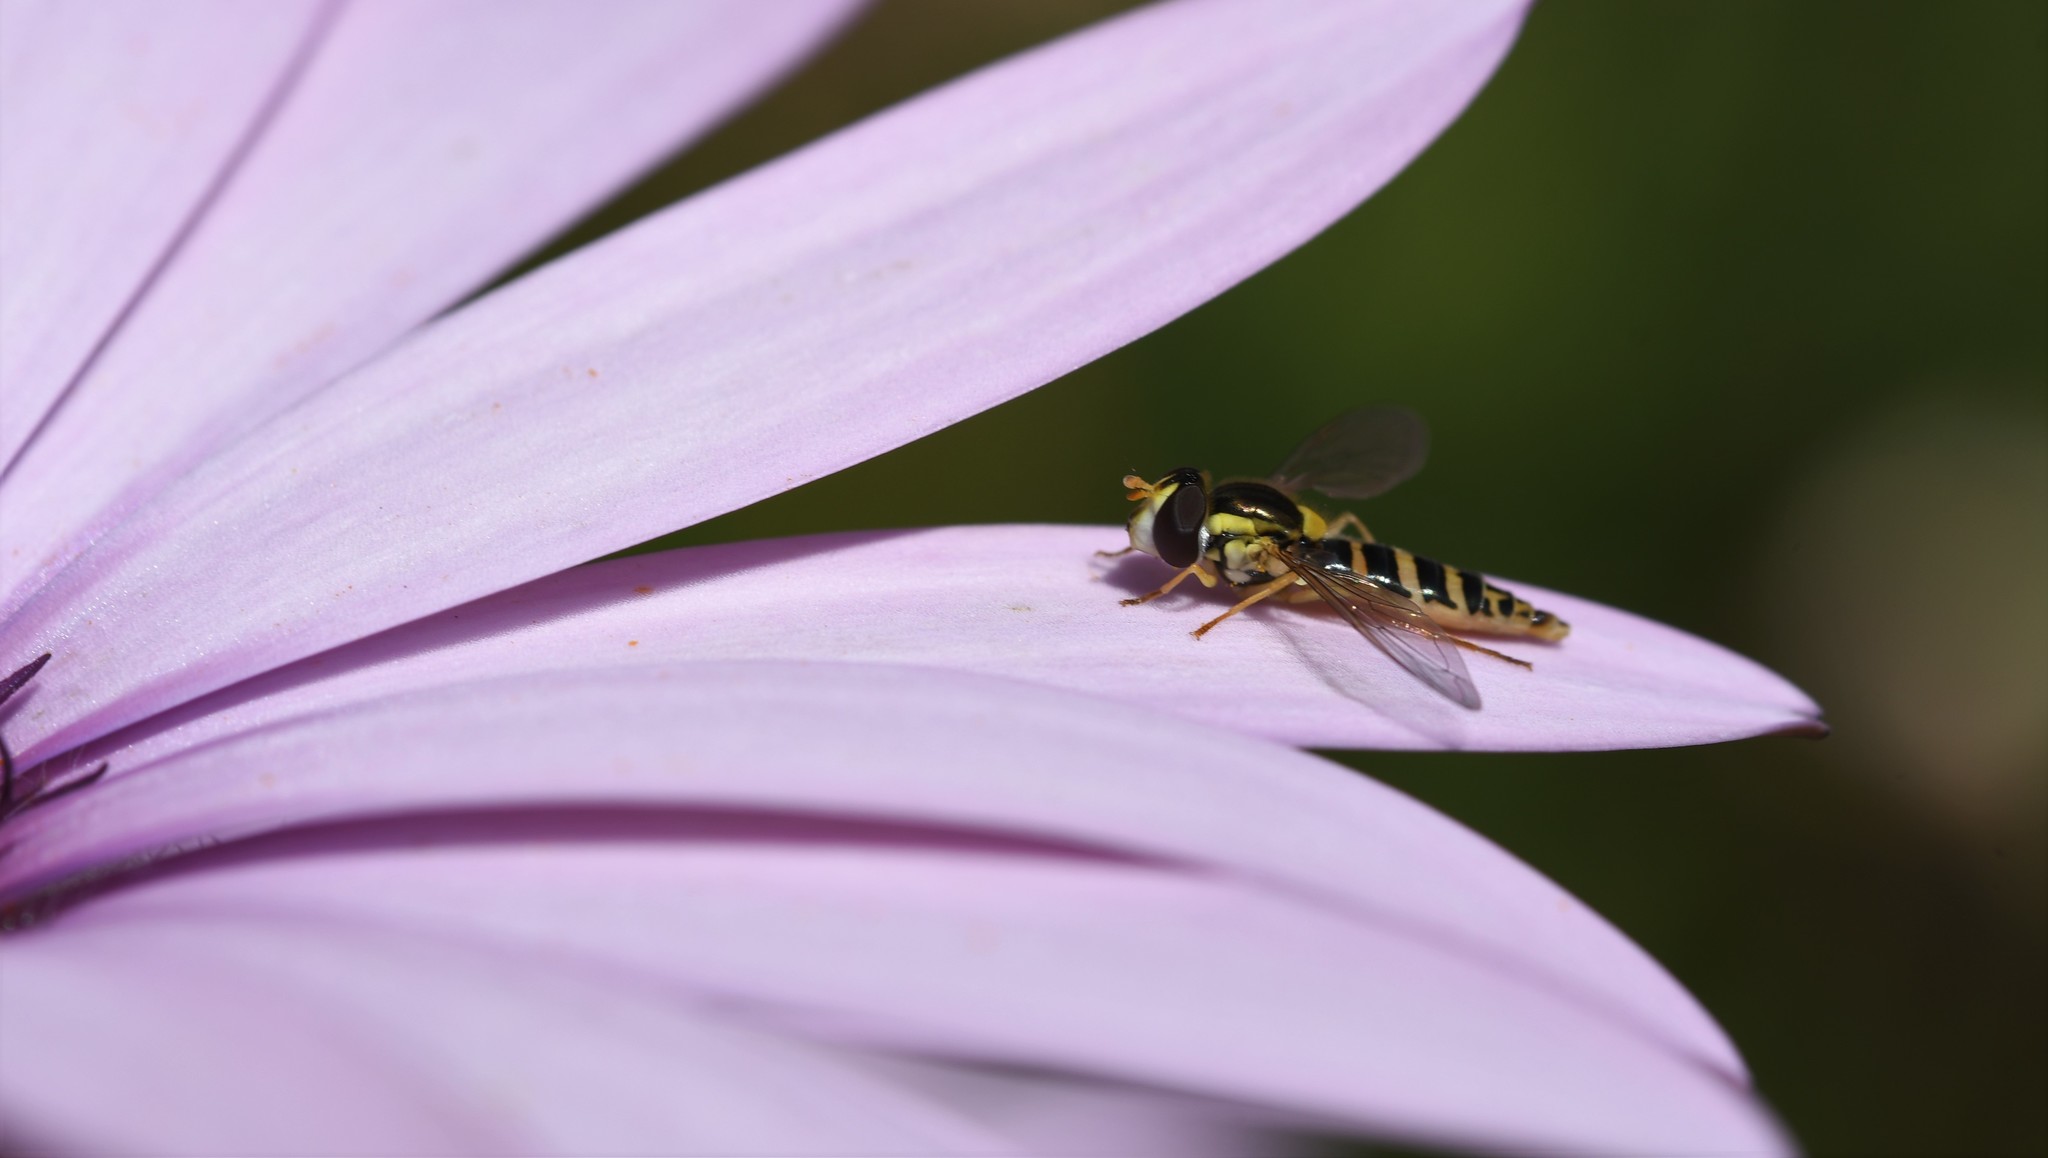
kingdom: Animalia
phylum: Arthropoda
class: Insecta
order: Diptera
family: Syrphidae
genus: Sphaerophoria
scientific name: Sphaerophoria
